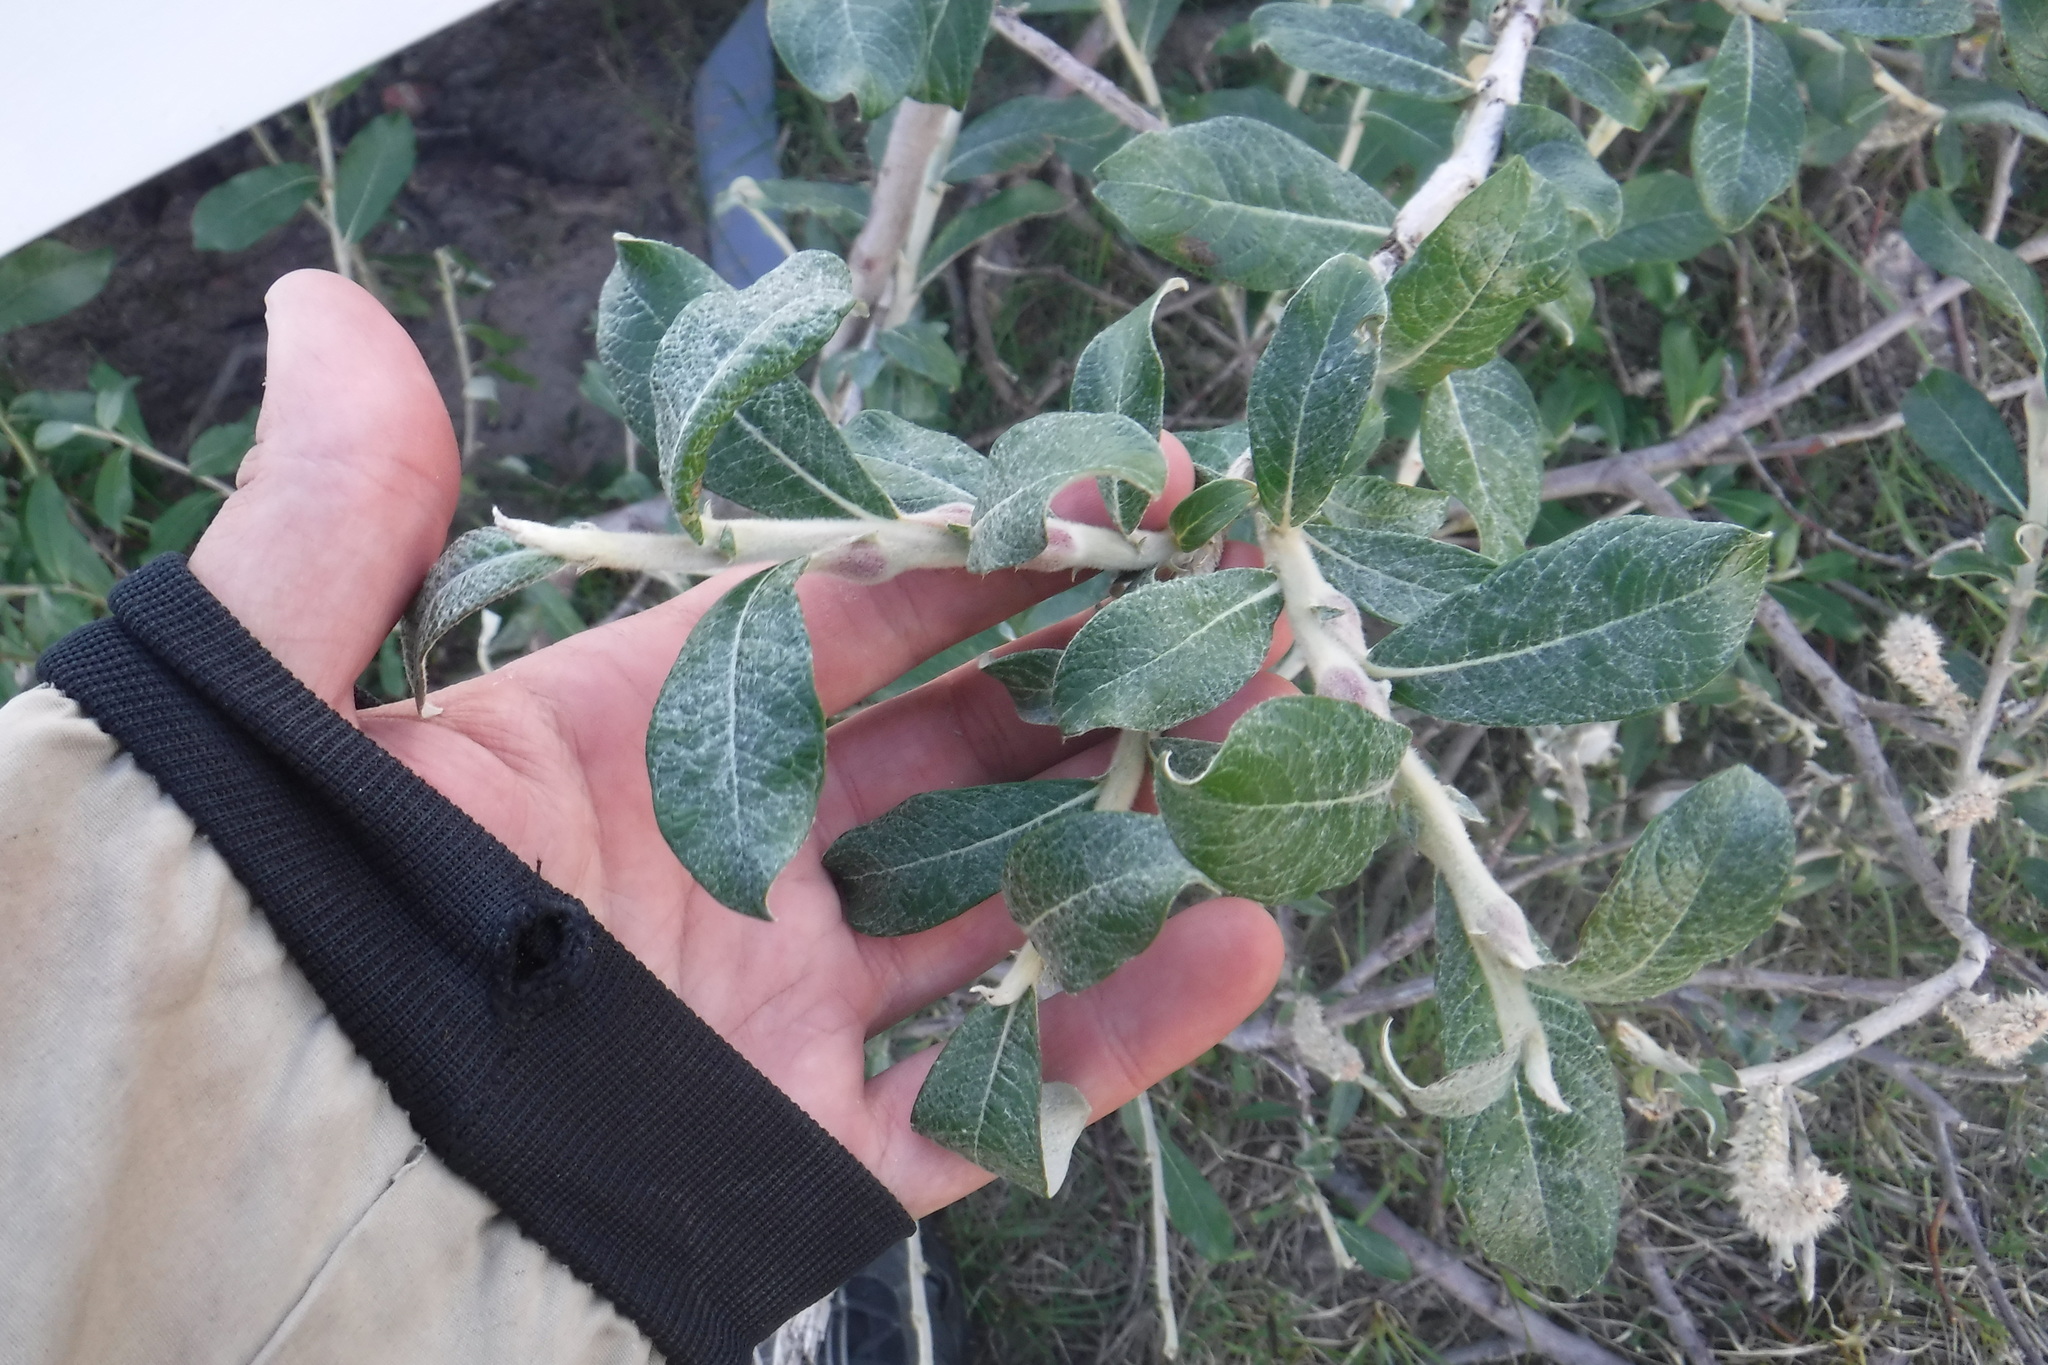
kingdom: Plantae
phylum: Tracheophyta
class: Magnoliopsida
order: Malpighiales
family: Salicaceae
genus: Salix
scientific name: Salix alaxensis
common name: Feltleaf willow
